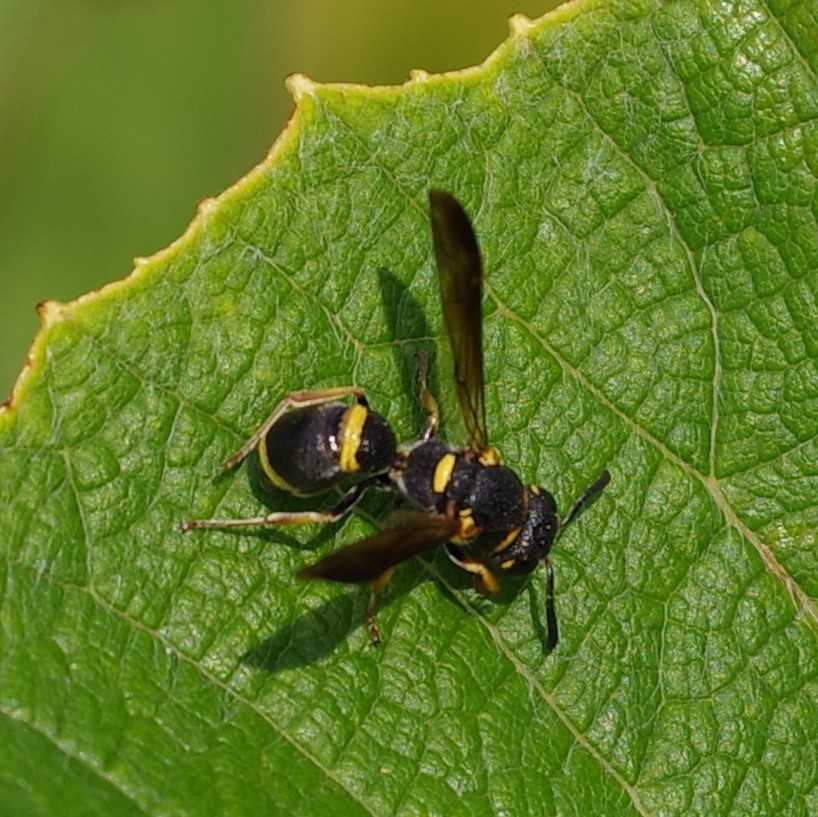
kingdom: Animalia
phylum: Arthropoda
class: Insecta
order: Hymenoptera
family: Eumenidae
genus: Parancistrocerus
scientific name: Parancistrocerus perennis
